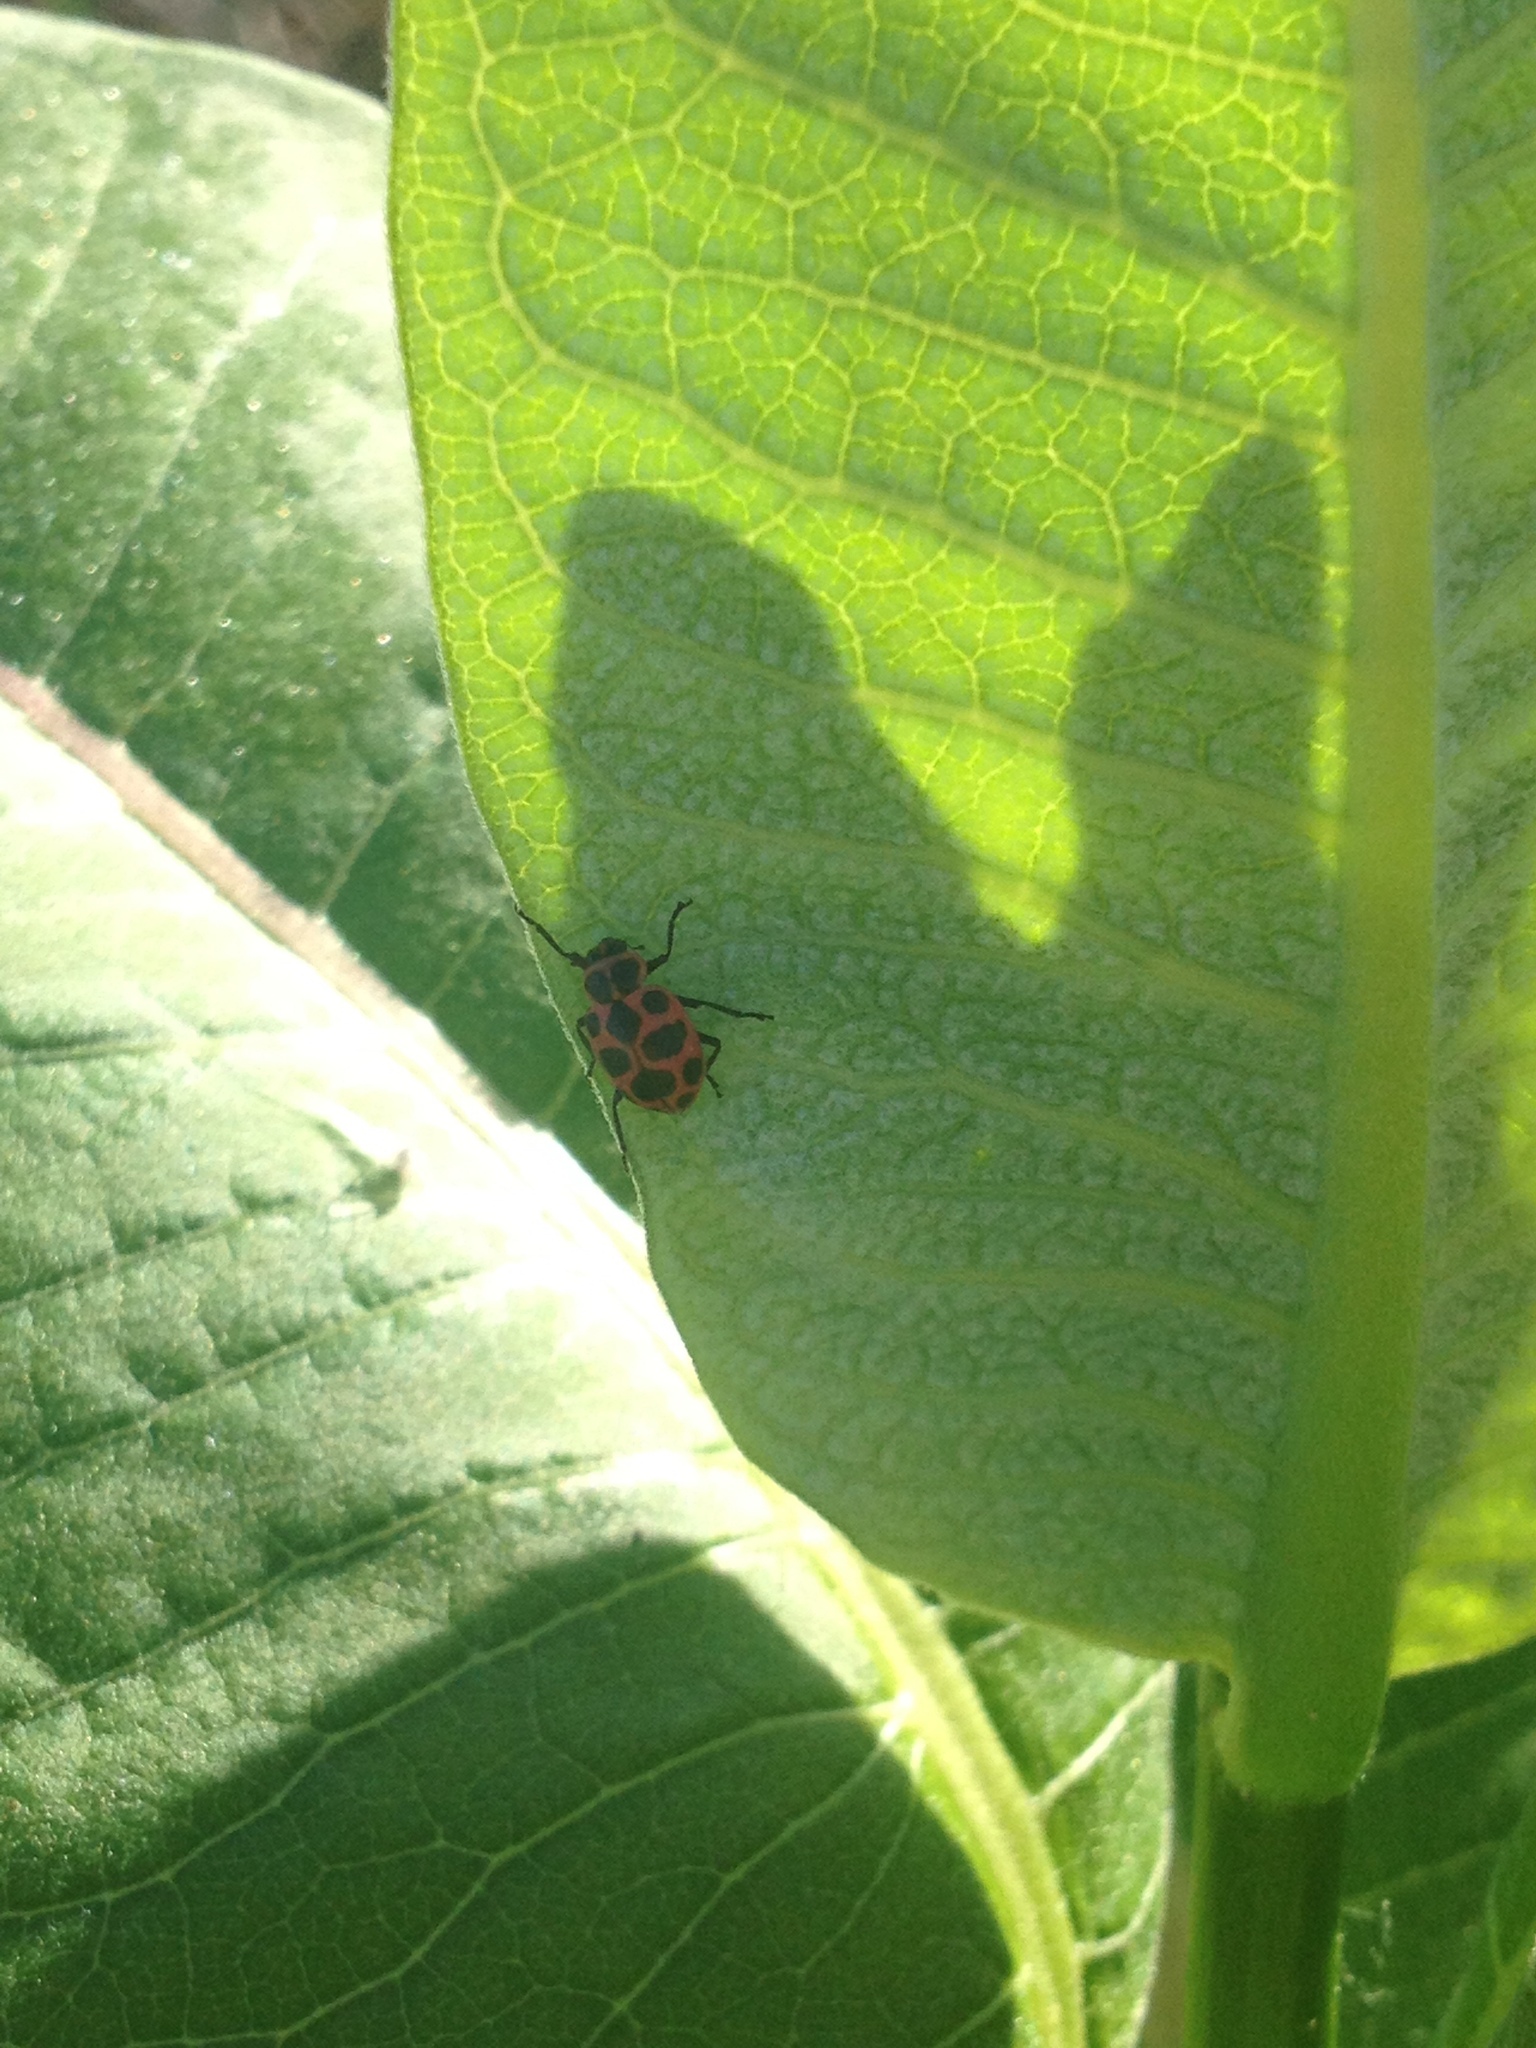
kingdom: Animalia
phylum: Arthropoda
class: Insecta
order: Coleoptera
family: Coccinellidae
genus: Coleomegilla
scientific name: Coleomegilla maculata
